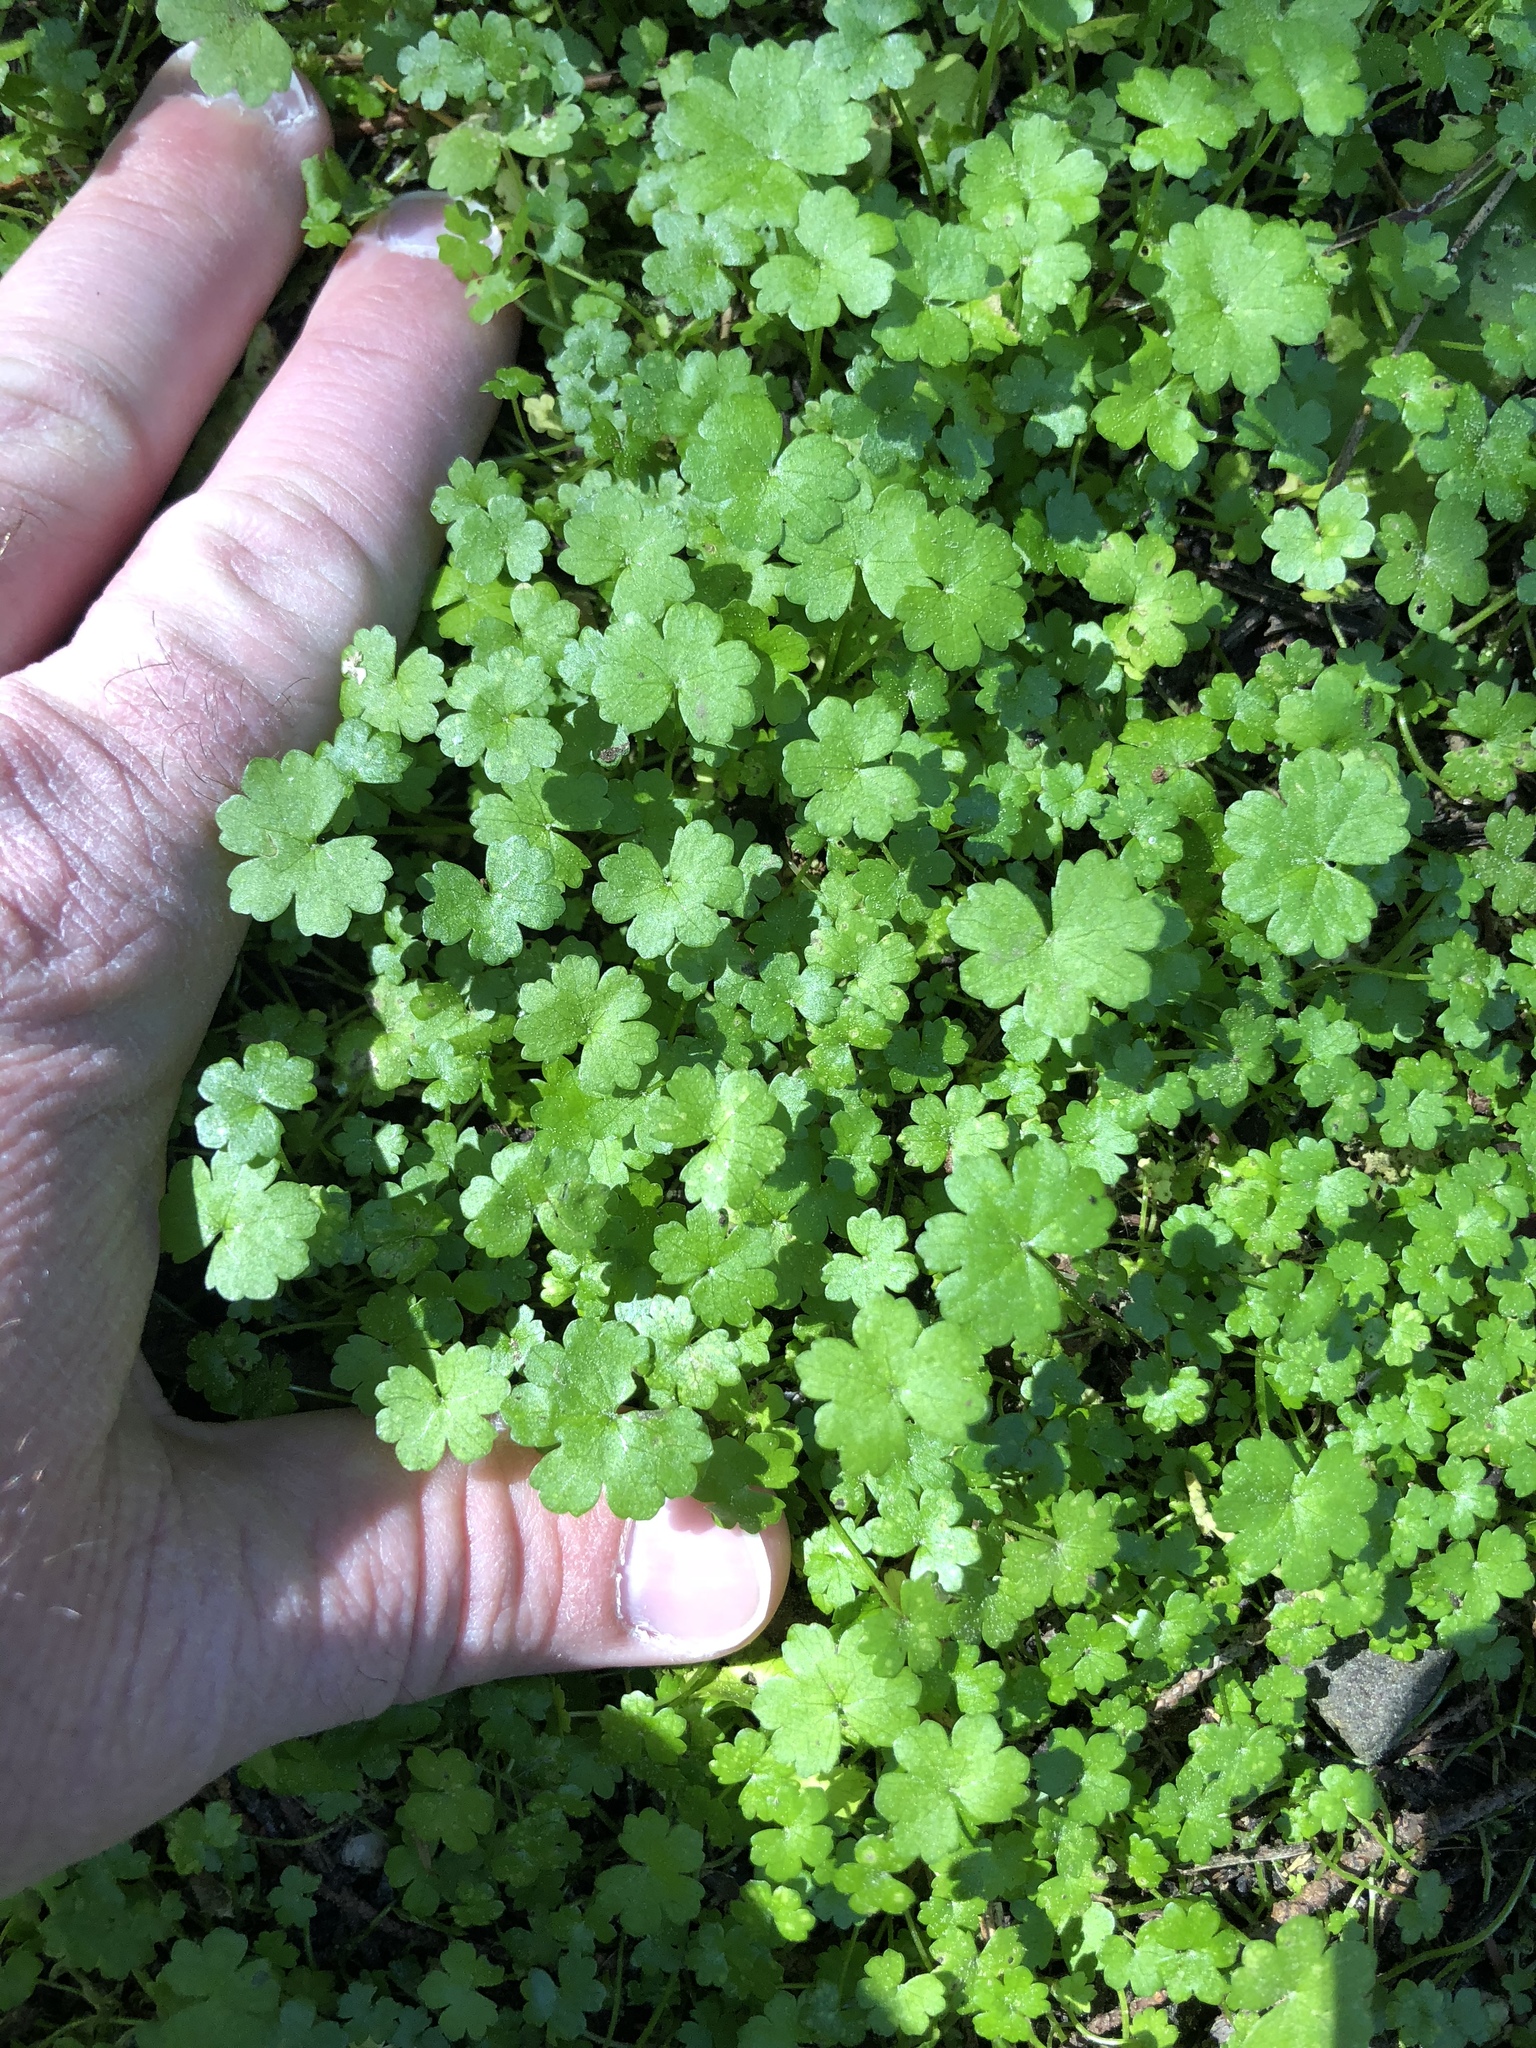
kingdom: Plantae
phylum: Tracheophyta
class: Magnoliopsida
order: Apiales
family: Araliaceae
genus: Hydrocotyle
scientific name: Hydrocotyle heteromeria
